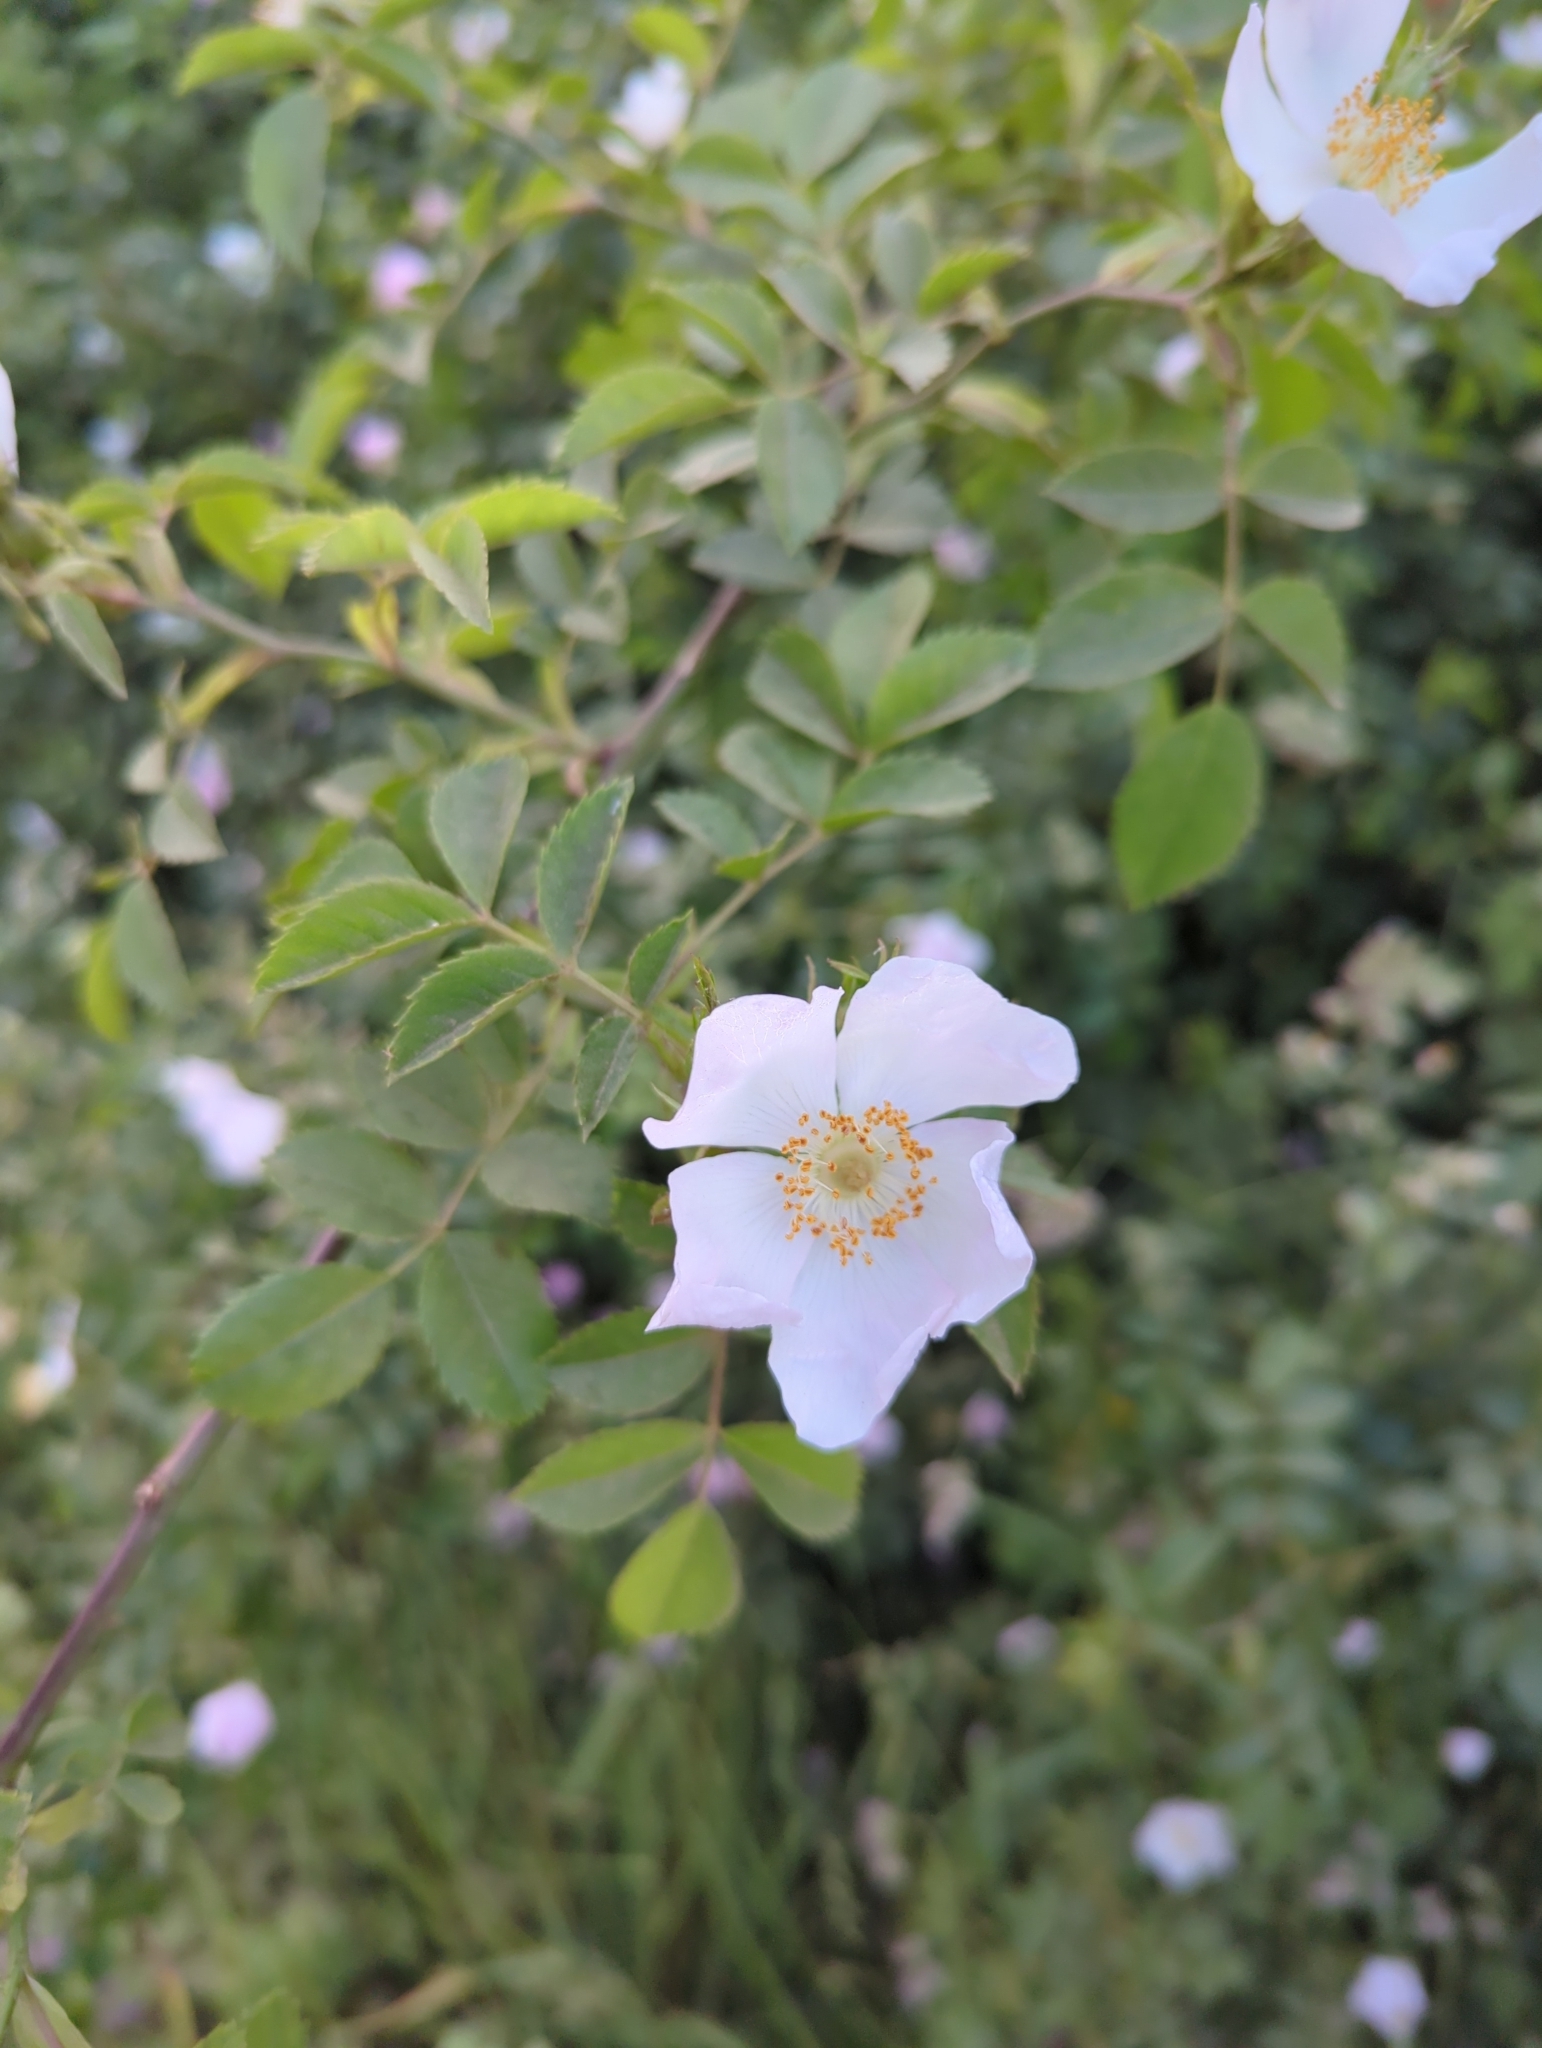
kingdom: Plantae
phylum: Tracheophyta
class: Magnoliopsida
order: Rosales
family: Rosaceae
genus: Rosa
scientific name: Rosa canina
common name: Dog rose
